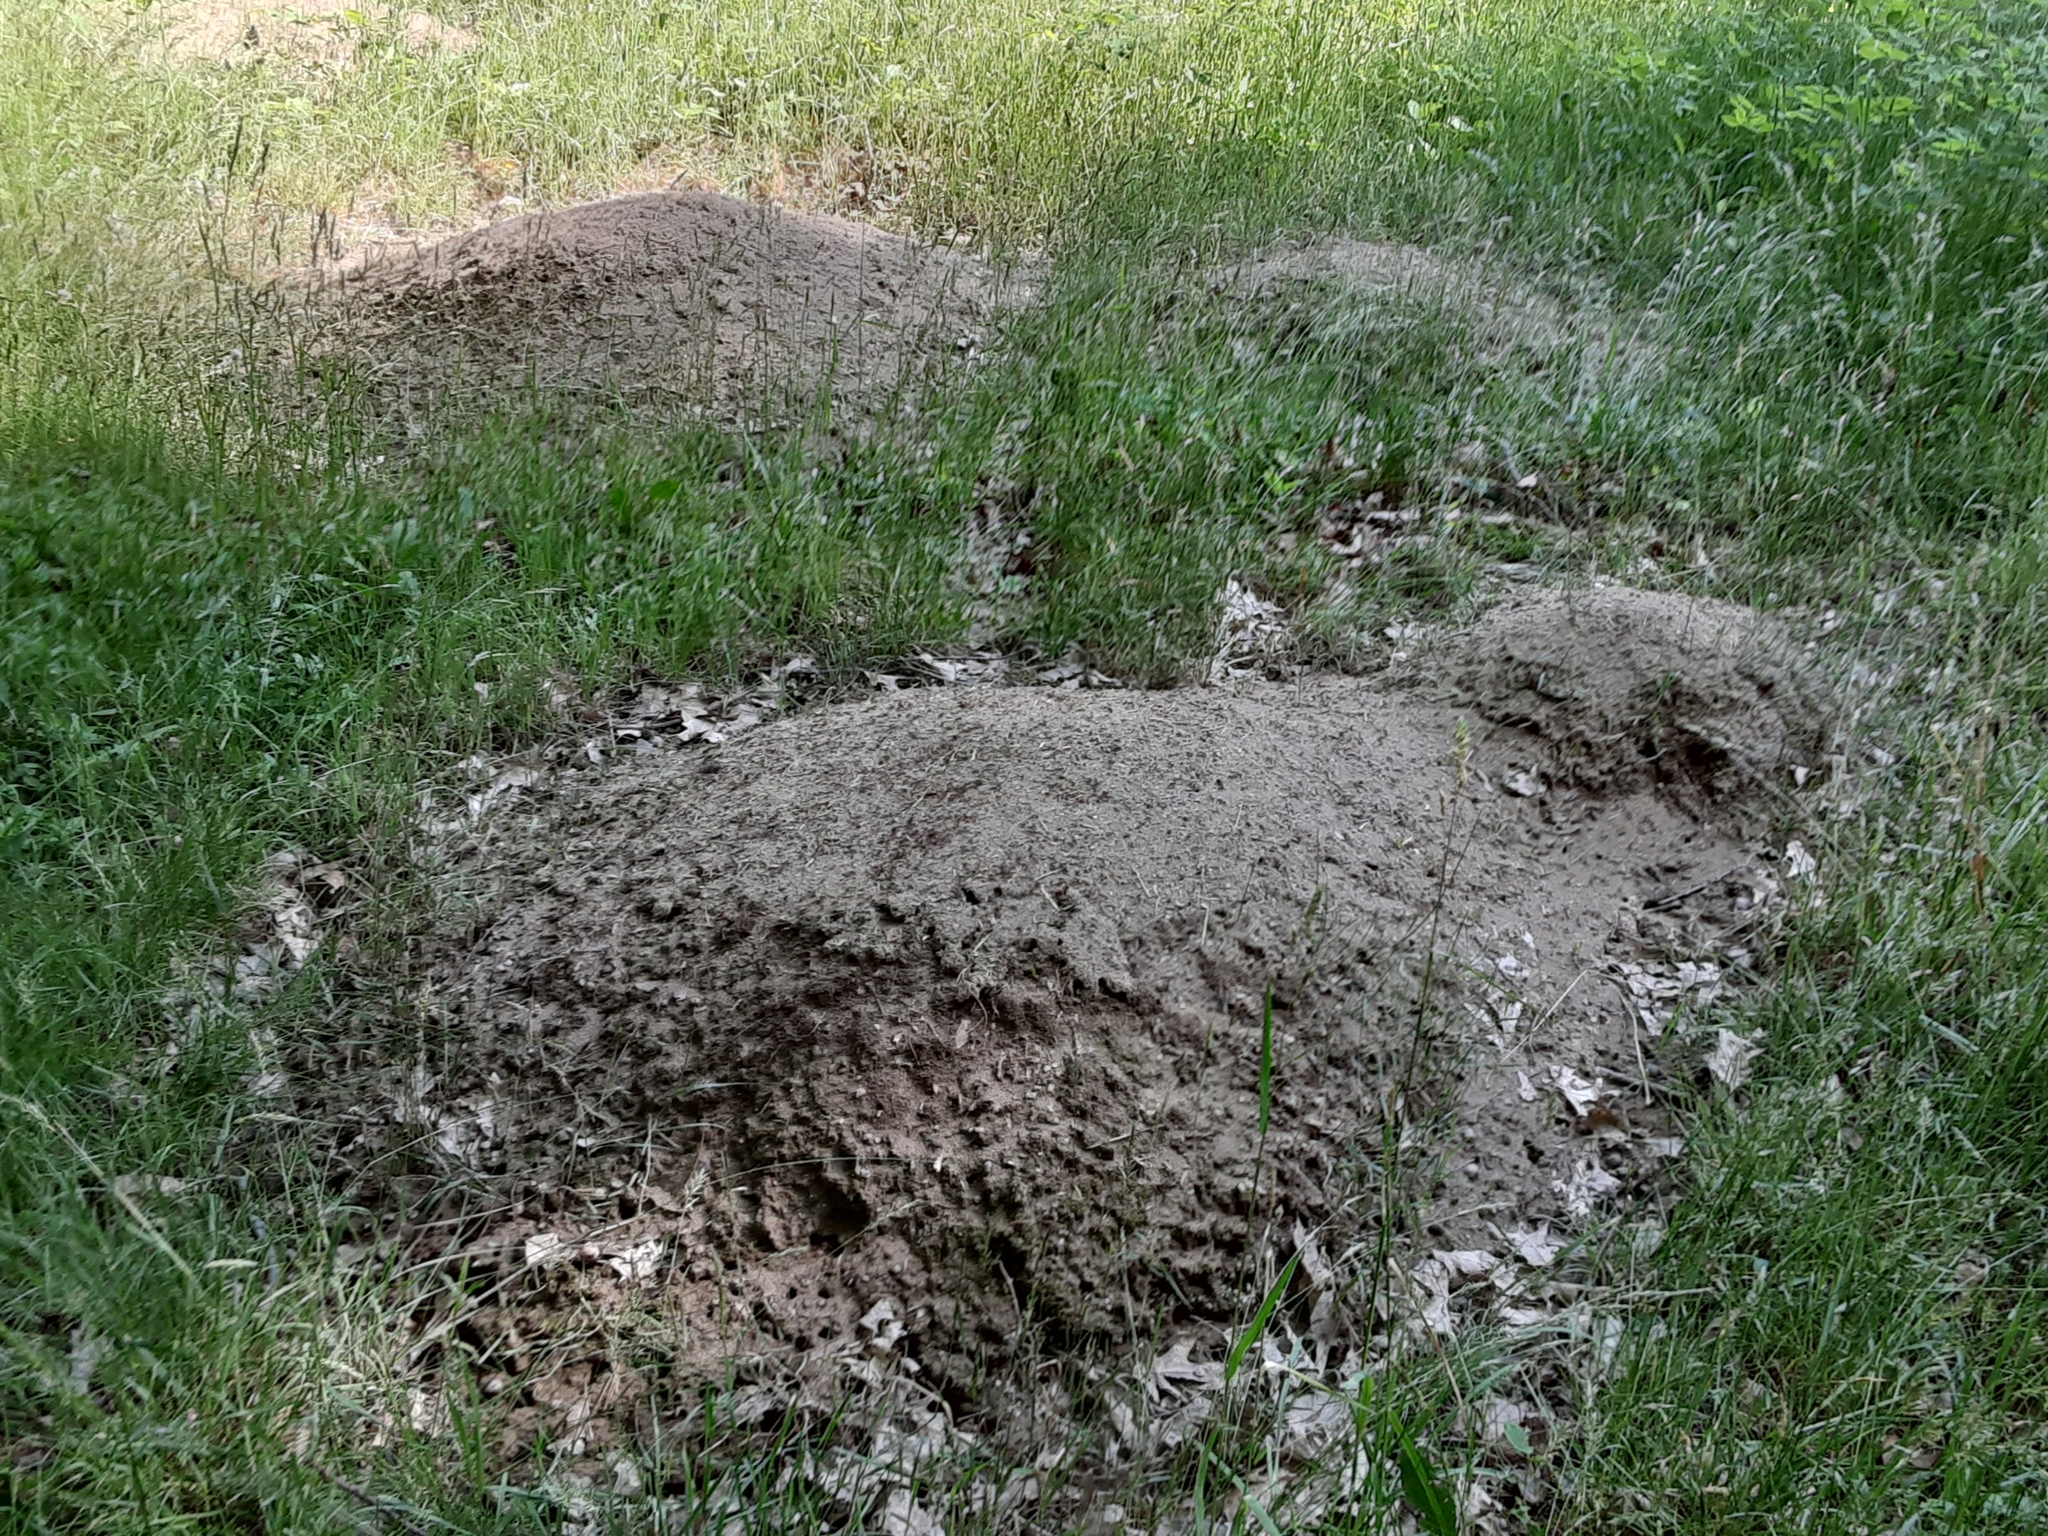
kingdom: Animalia
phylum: Arthropoda
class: Insecta
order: Hymenoptera
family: Formicidae
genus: Formica
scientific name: Formica exsectoides
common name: Allegheny mound ant
